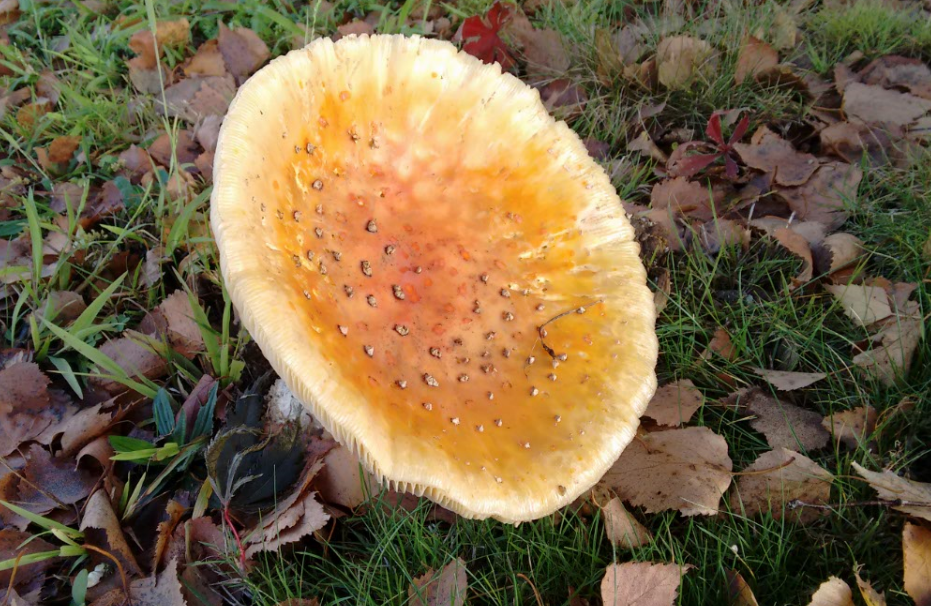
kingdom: Fungi
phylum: Basidiomycota
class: Agaricomycetes
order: Agaricales
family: Amanitaceae
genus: Amanita
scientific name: Amanita muscaria
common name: Fly agaric
